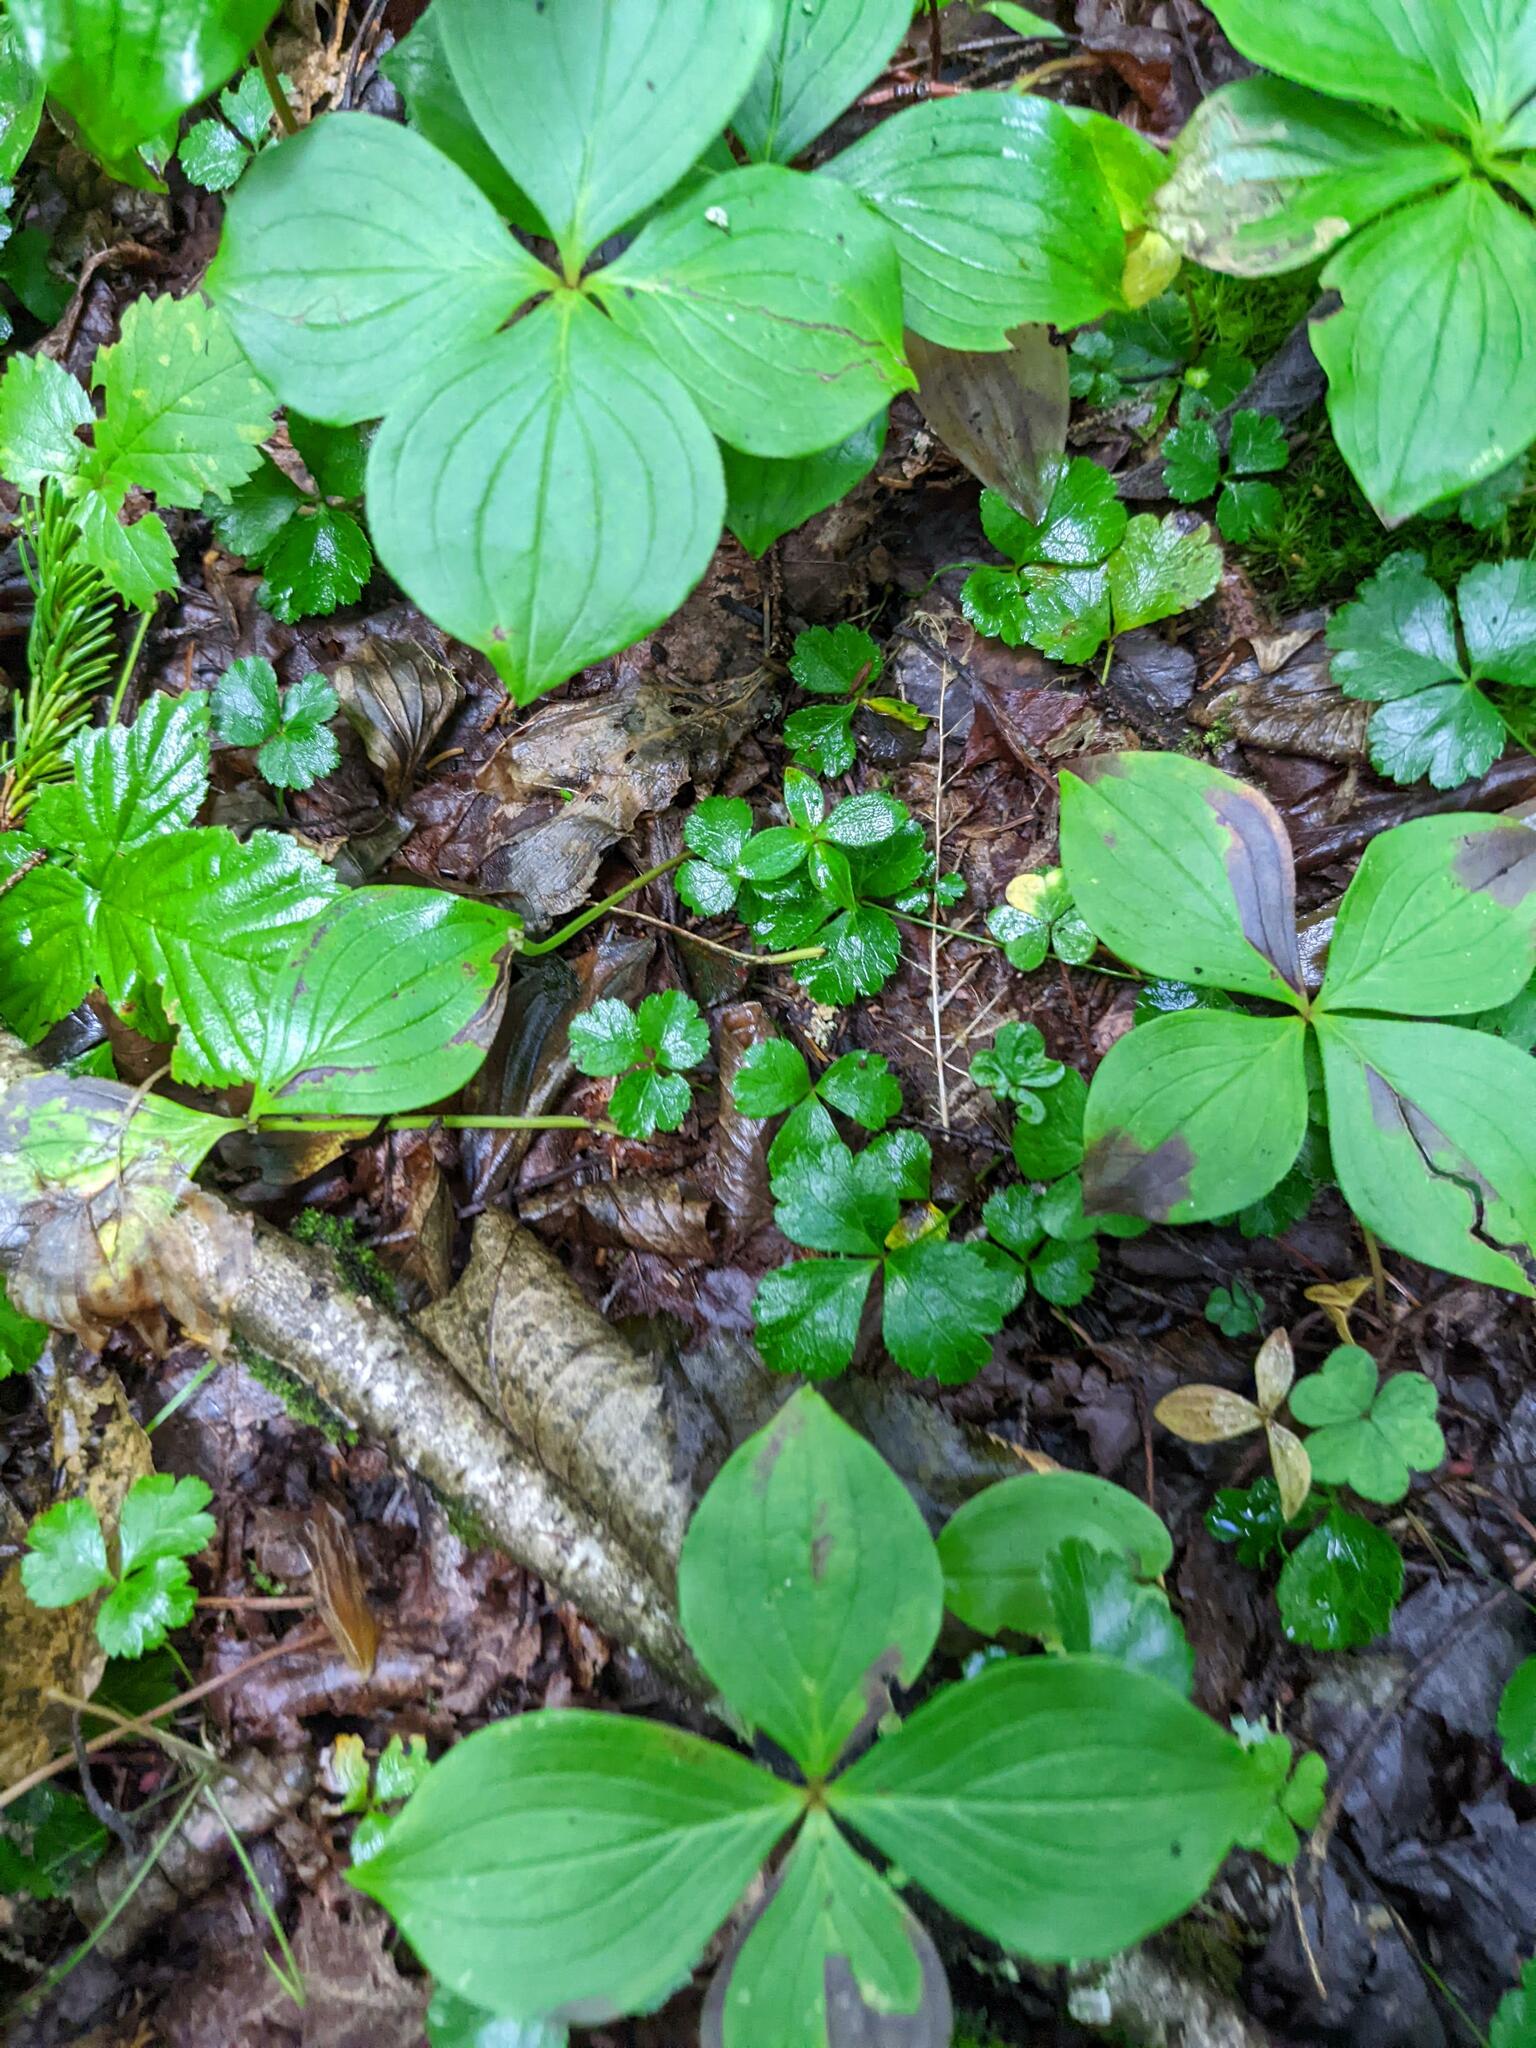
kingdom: Plantae
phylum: Tracheophyta
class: Magnoliopsida
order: Cornales
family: Cornaceae
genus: Cornus
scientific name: Cornus canadensis
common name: Creeping dogwood
